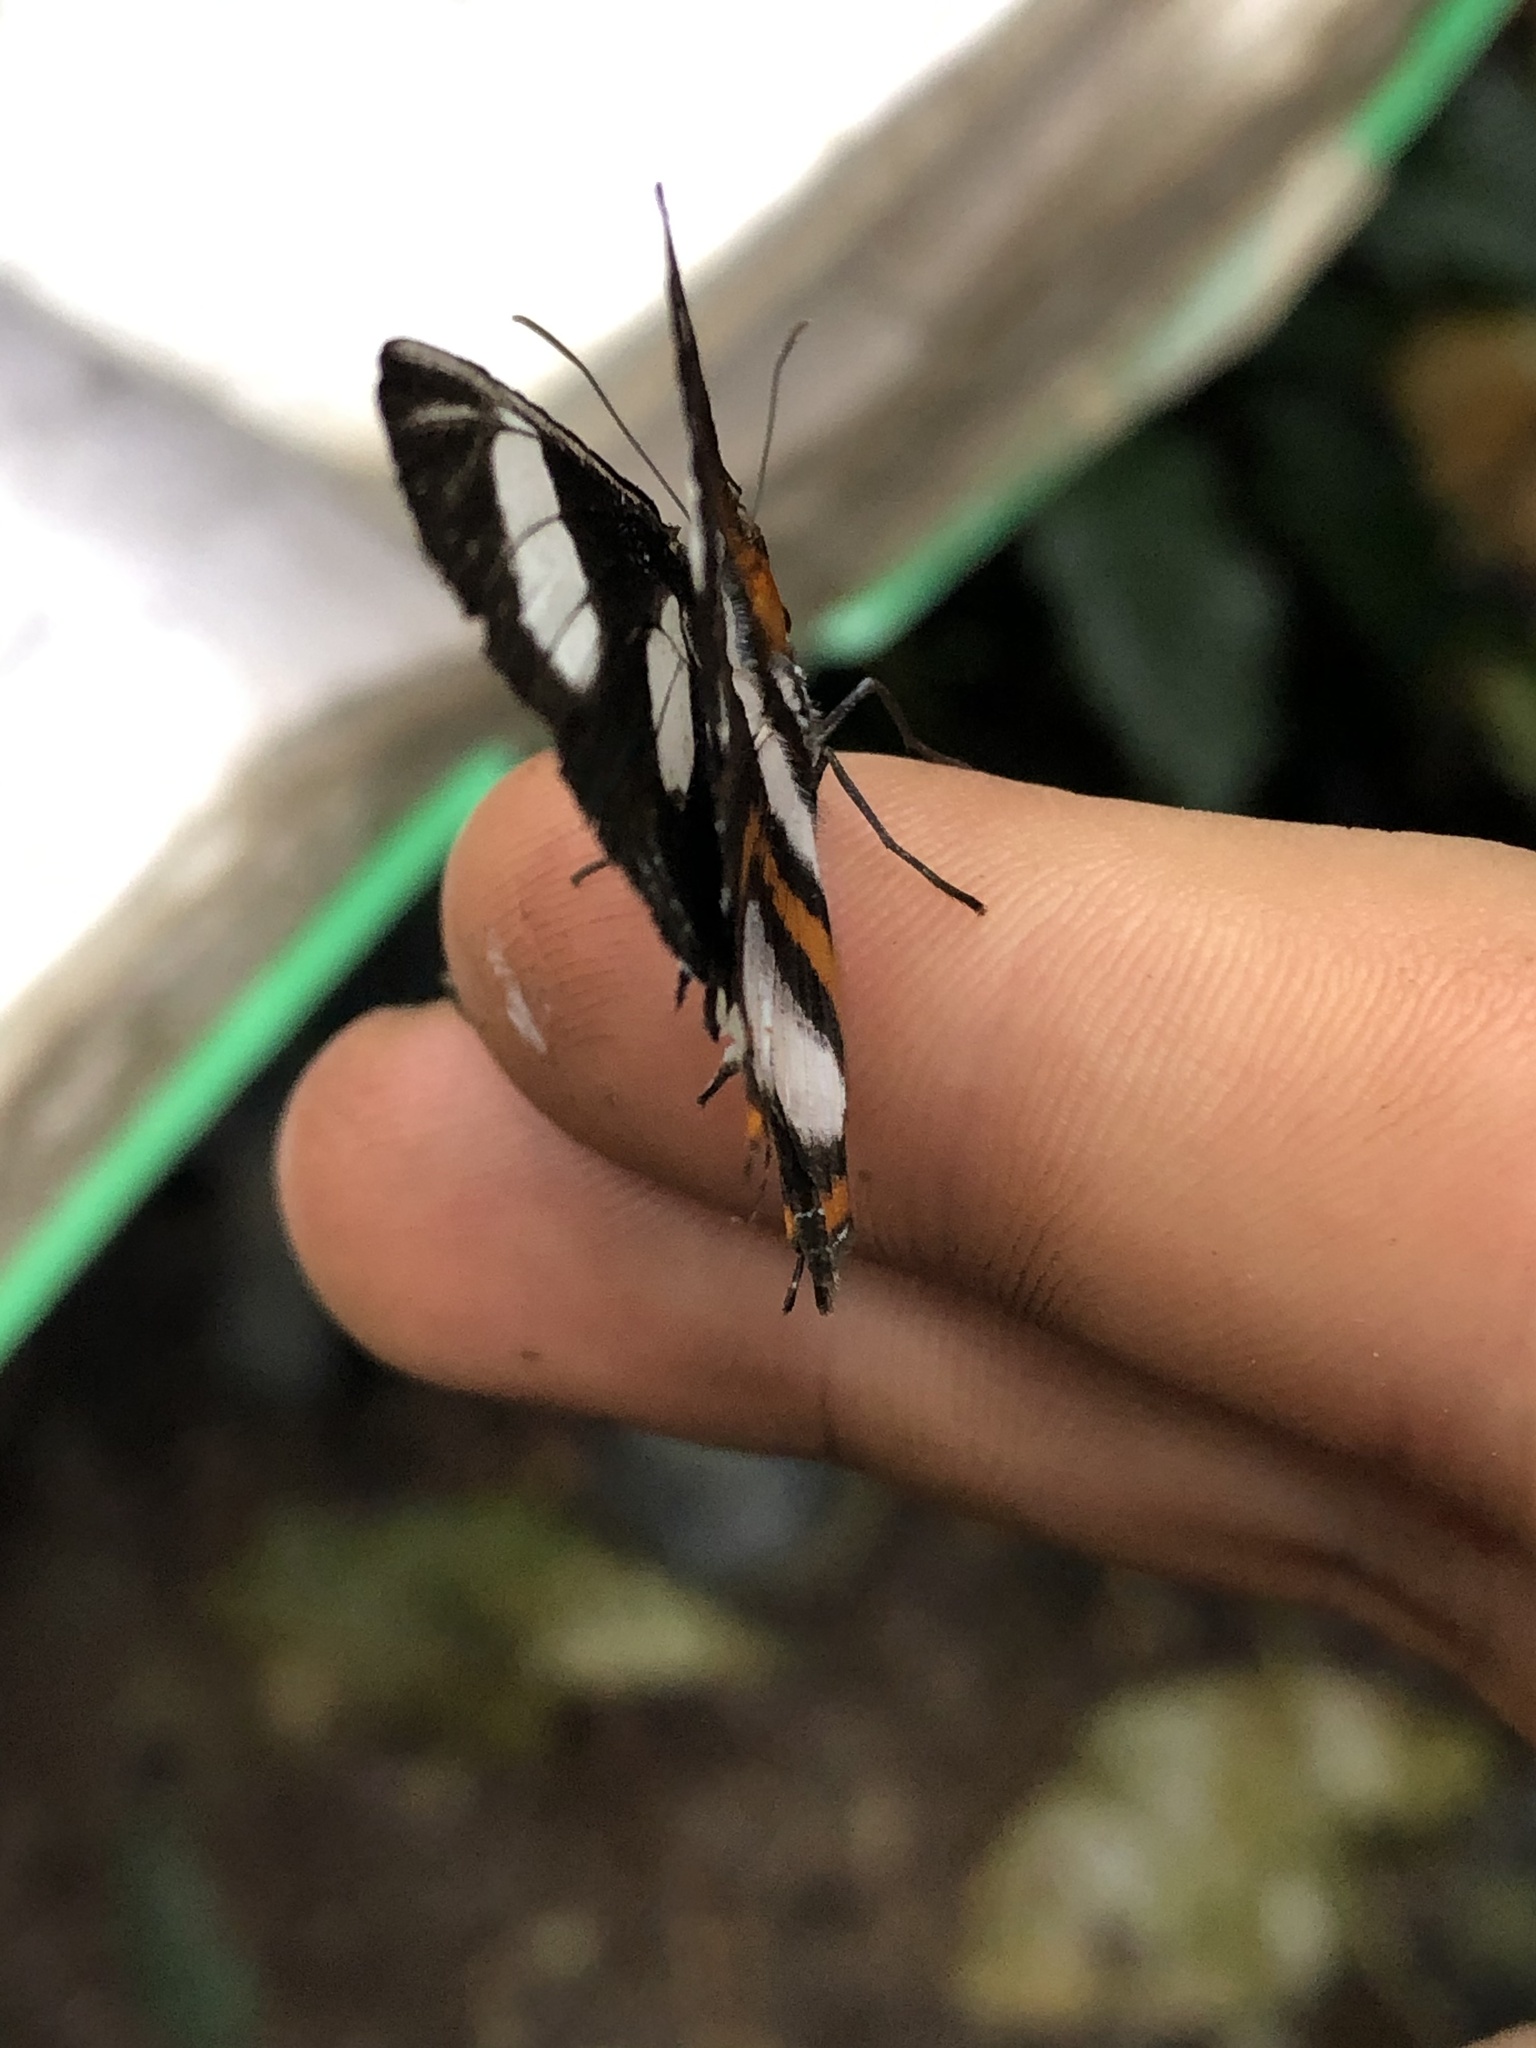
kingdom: Animalia
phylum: Arthropoda
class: Insecta
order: Lepidoptera
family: Nymphalidae
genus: Vila
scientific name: Vila emilia
